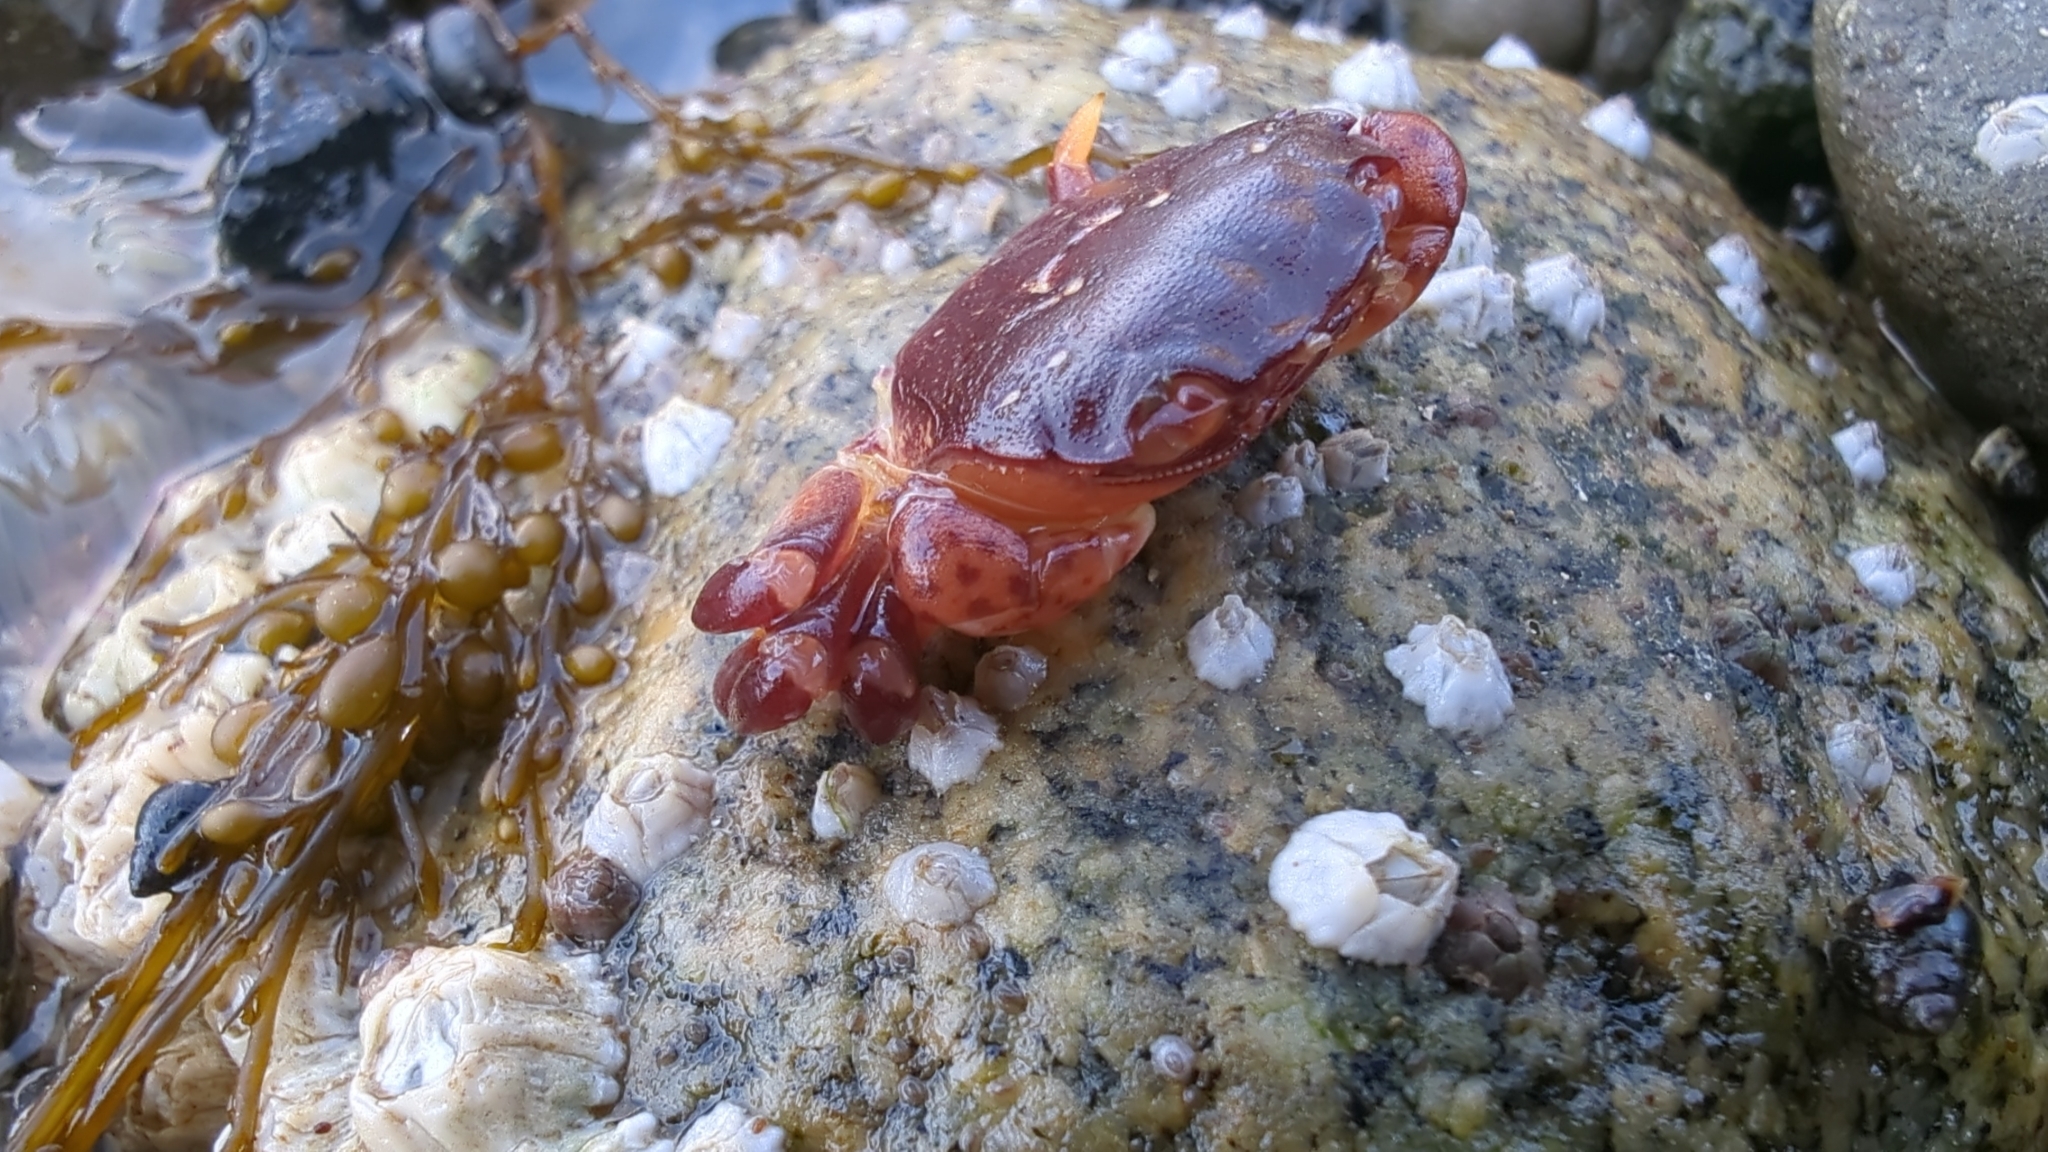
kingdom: Animalia
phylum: Arthropoda
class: Malacostraca
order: Decapoda
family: Varunidae
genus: Hemigrapsus
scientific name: Hemigrapsus nudus
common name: Purple shore crab
